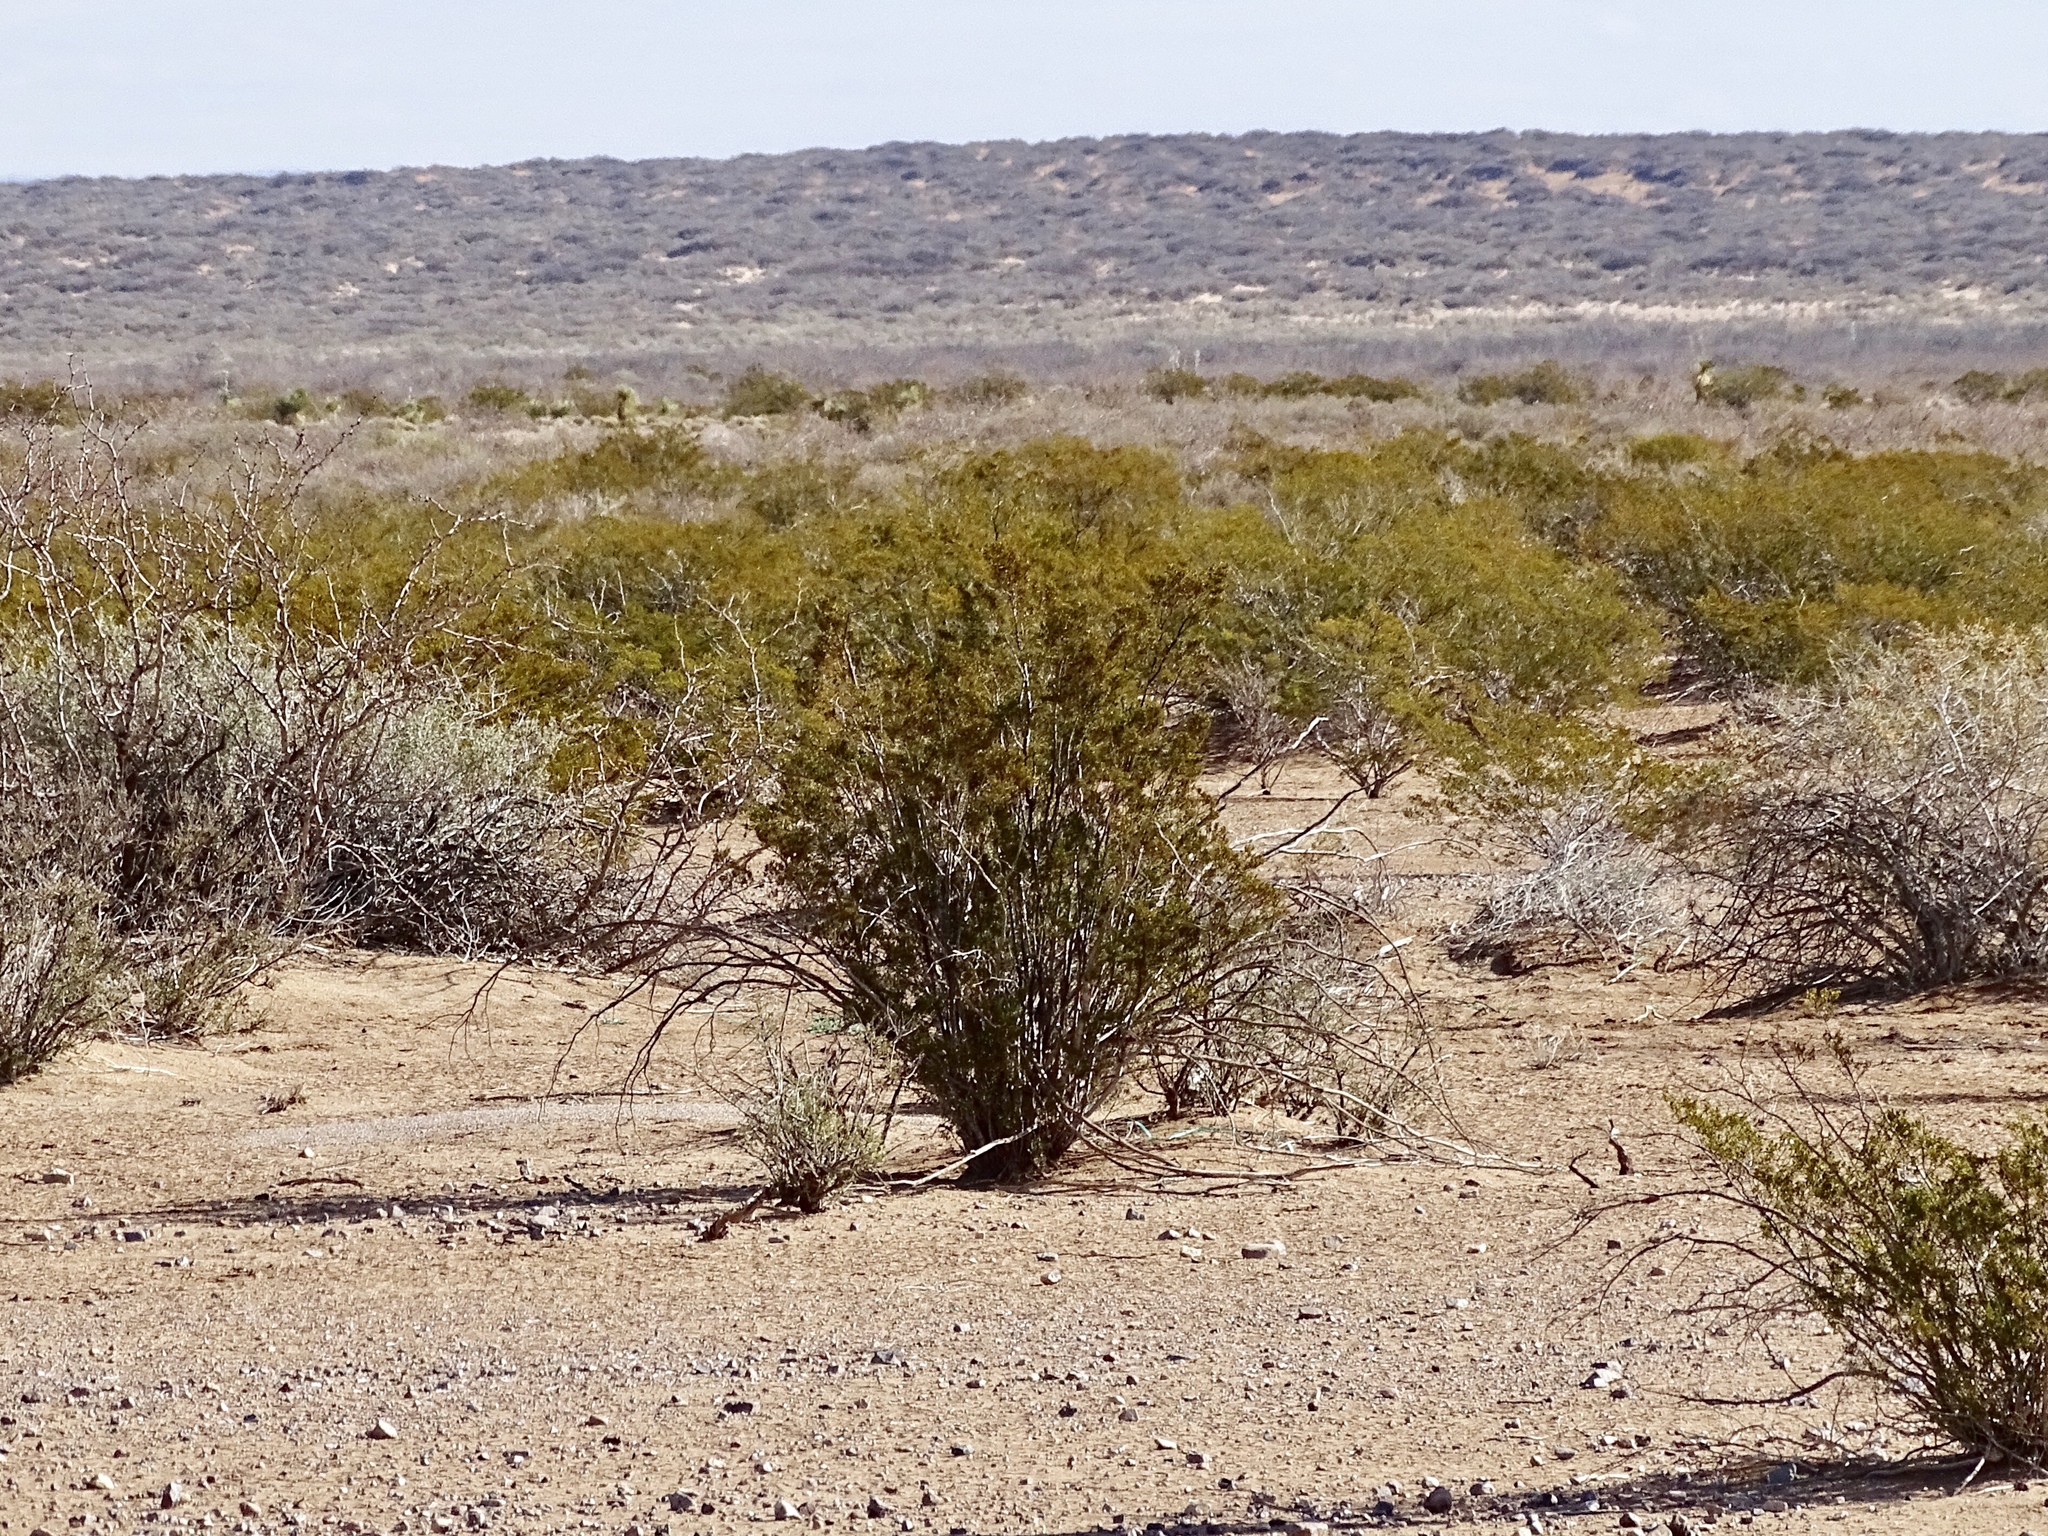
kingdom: Plantae
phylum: Tracheophyta
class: Magnoliopsida
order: Zygophyllales
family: Zygophyllaceae
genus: Larrea
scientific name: Larrea tridentata
